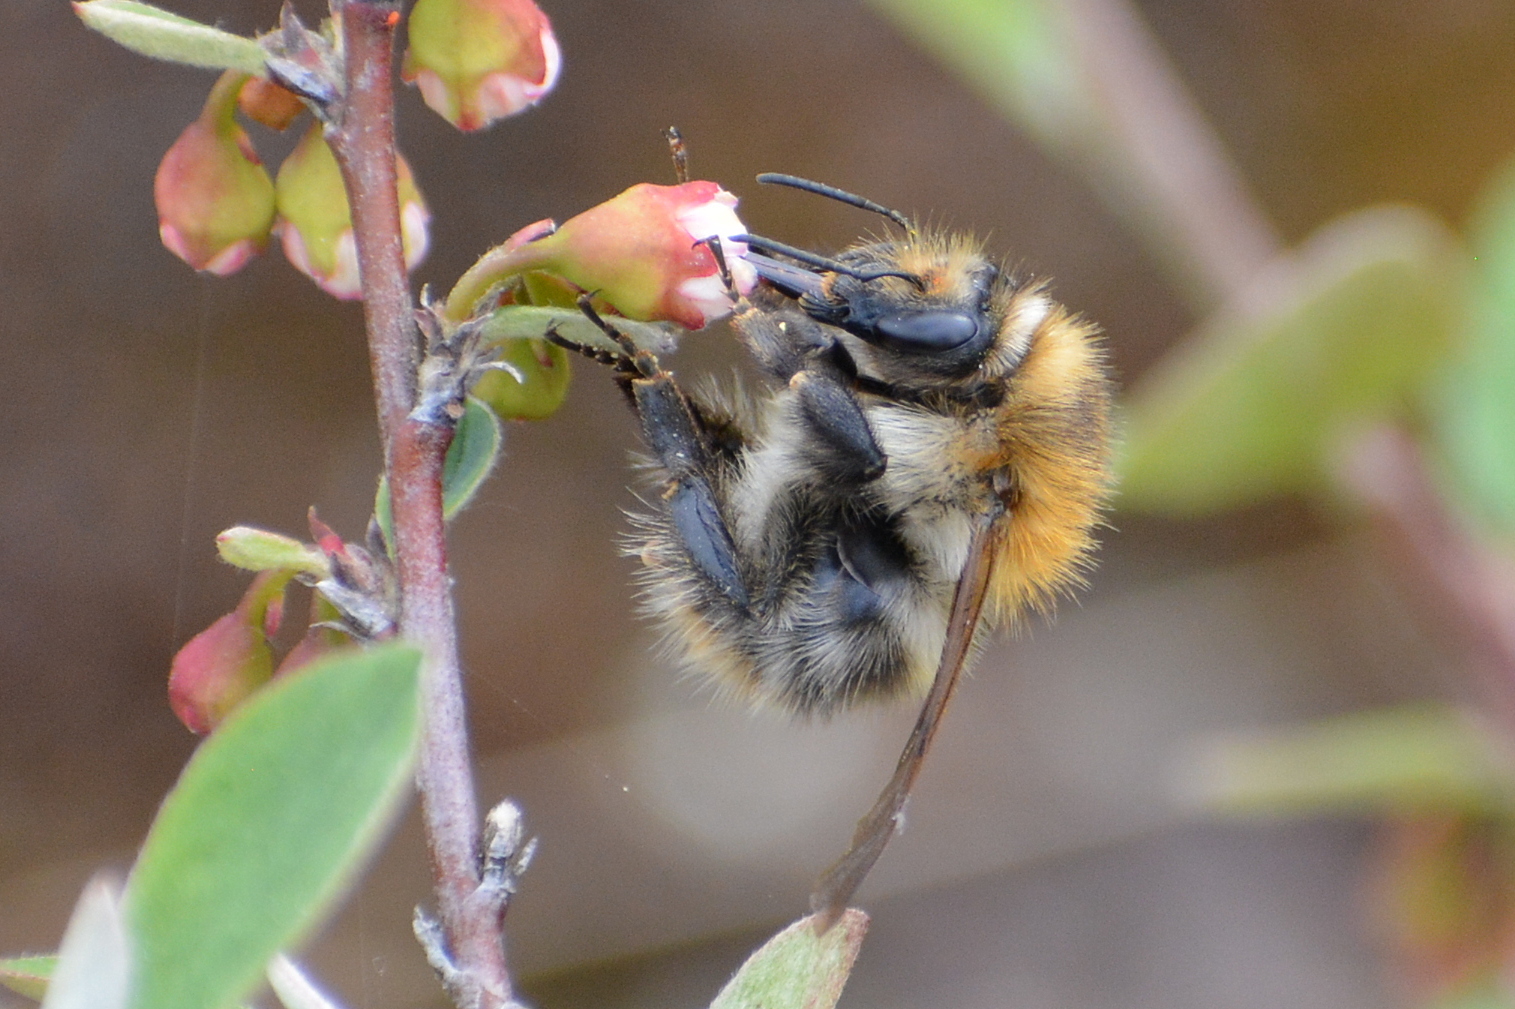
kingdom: Animalia
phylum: Arthropoda
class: Insecta
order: Hymenoptera
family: Apidae
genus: Bombus
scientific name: Bombus pascuorum
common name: Common carder bee
